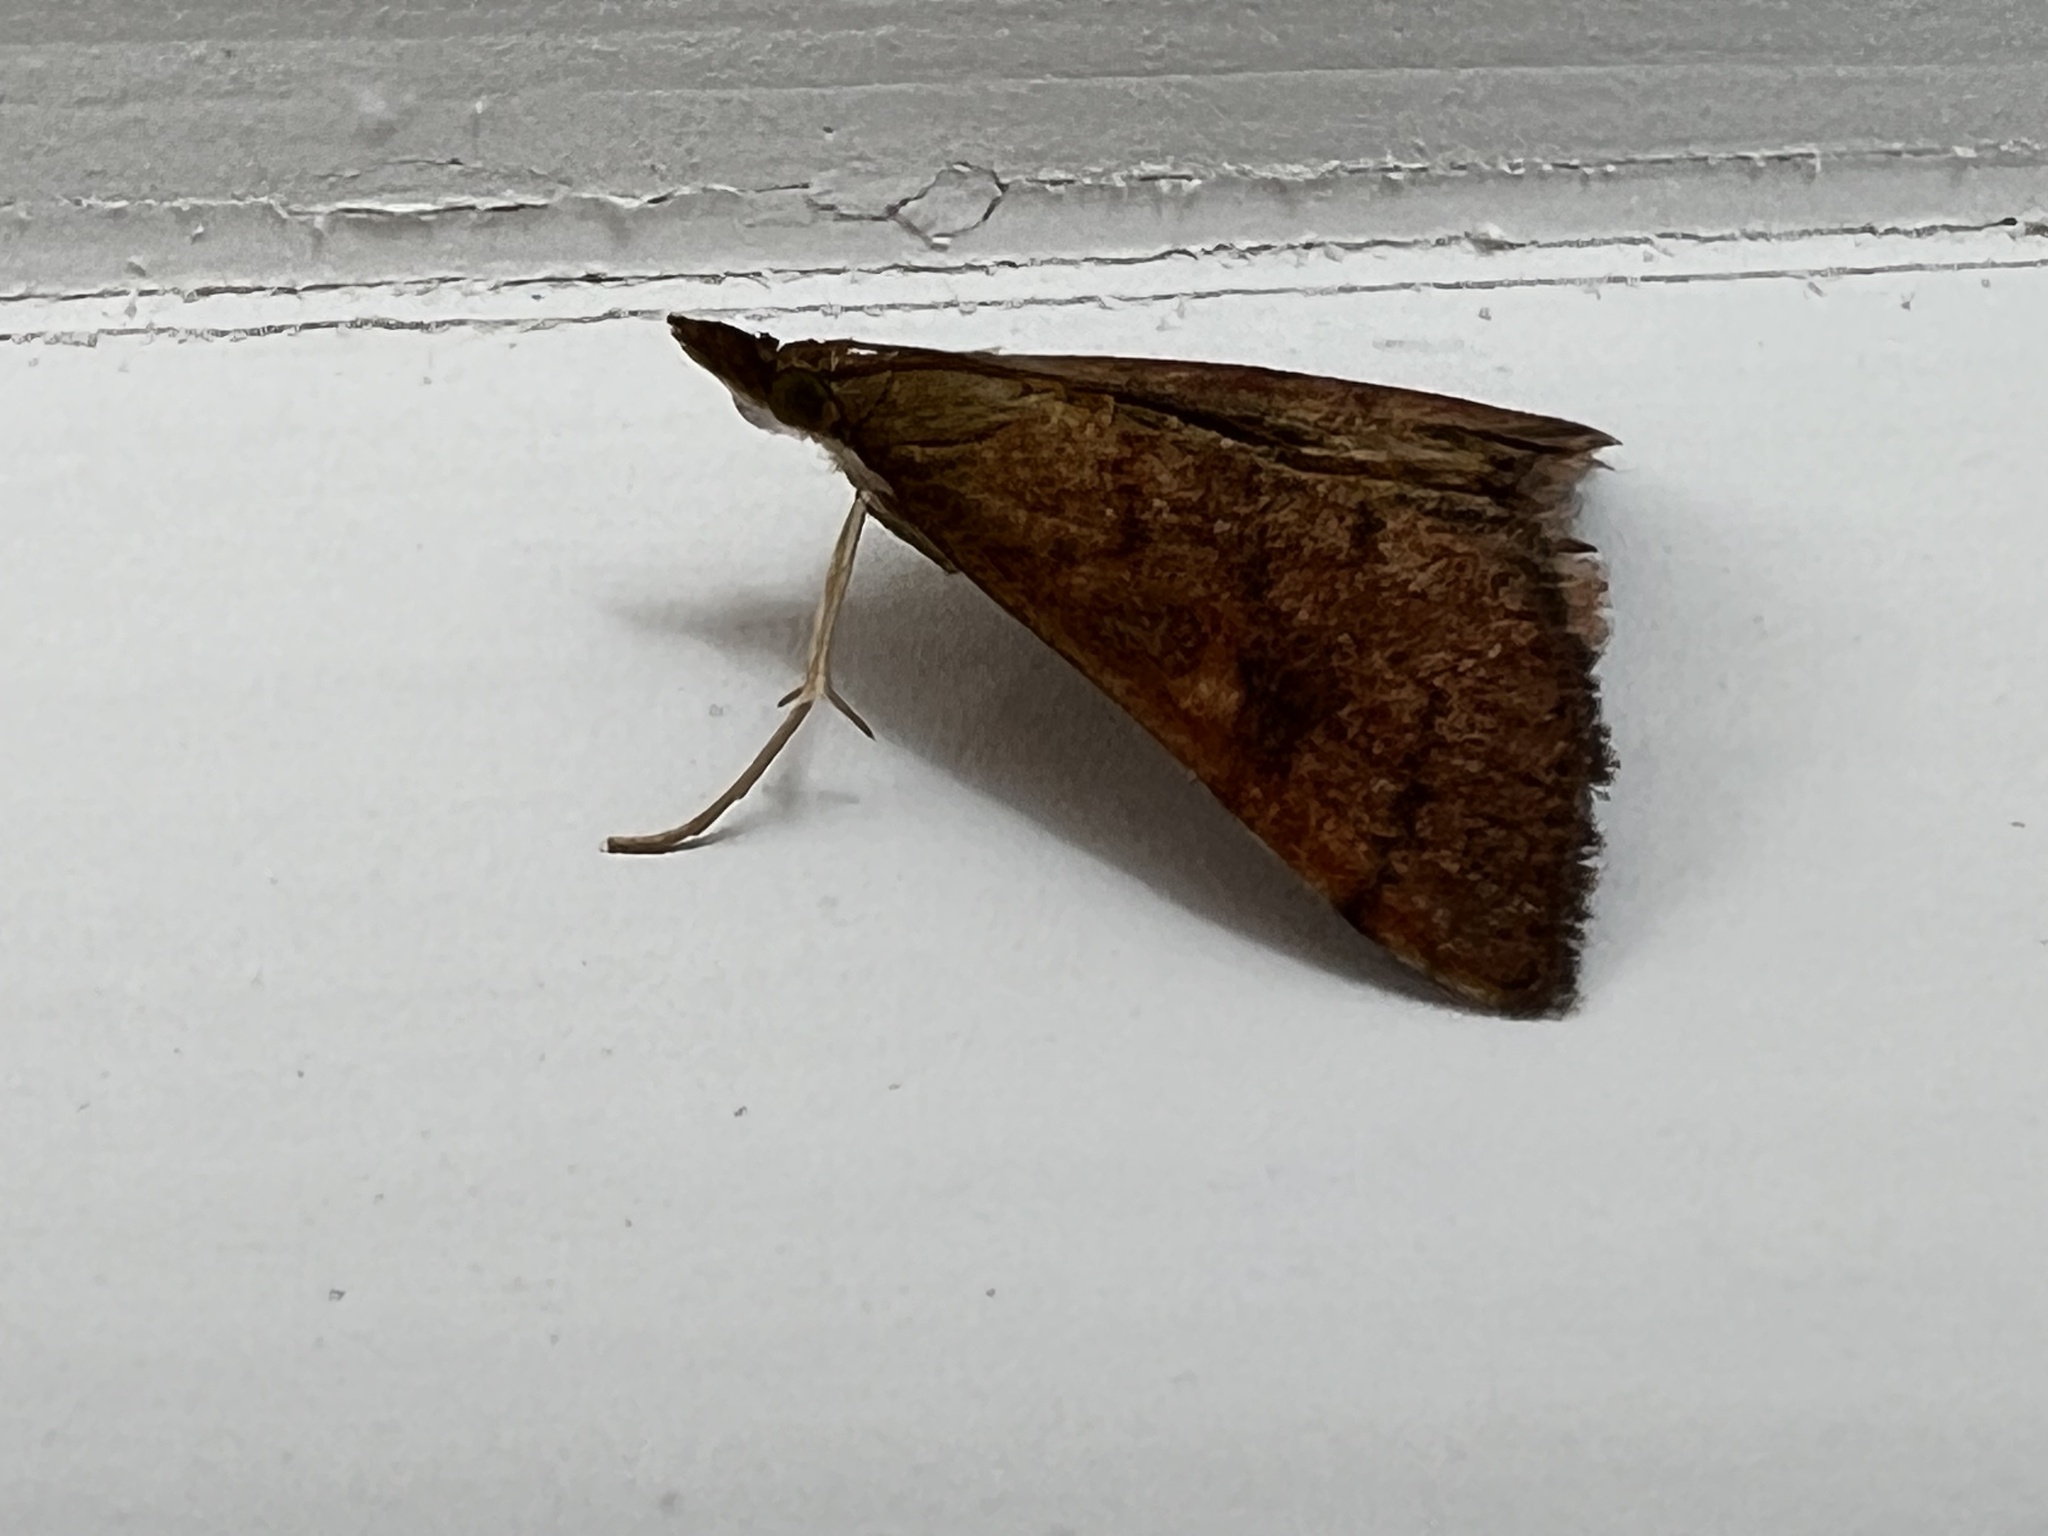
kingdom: Animalia
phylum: Arthropoda
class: Insecta
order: Lepidoptera
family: Crambidae
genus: Udea
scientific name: Udea Mnesictena flavidalis
